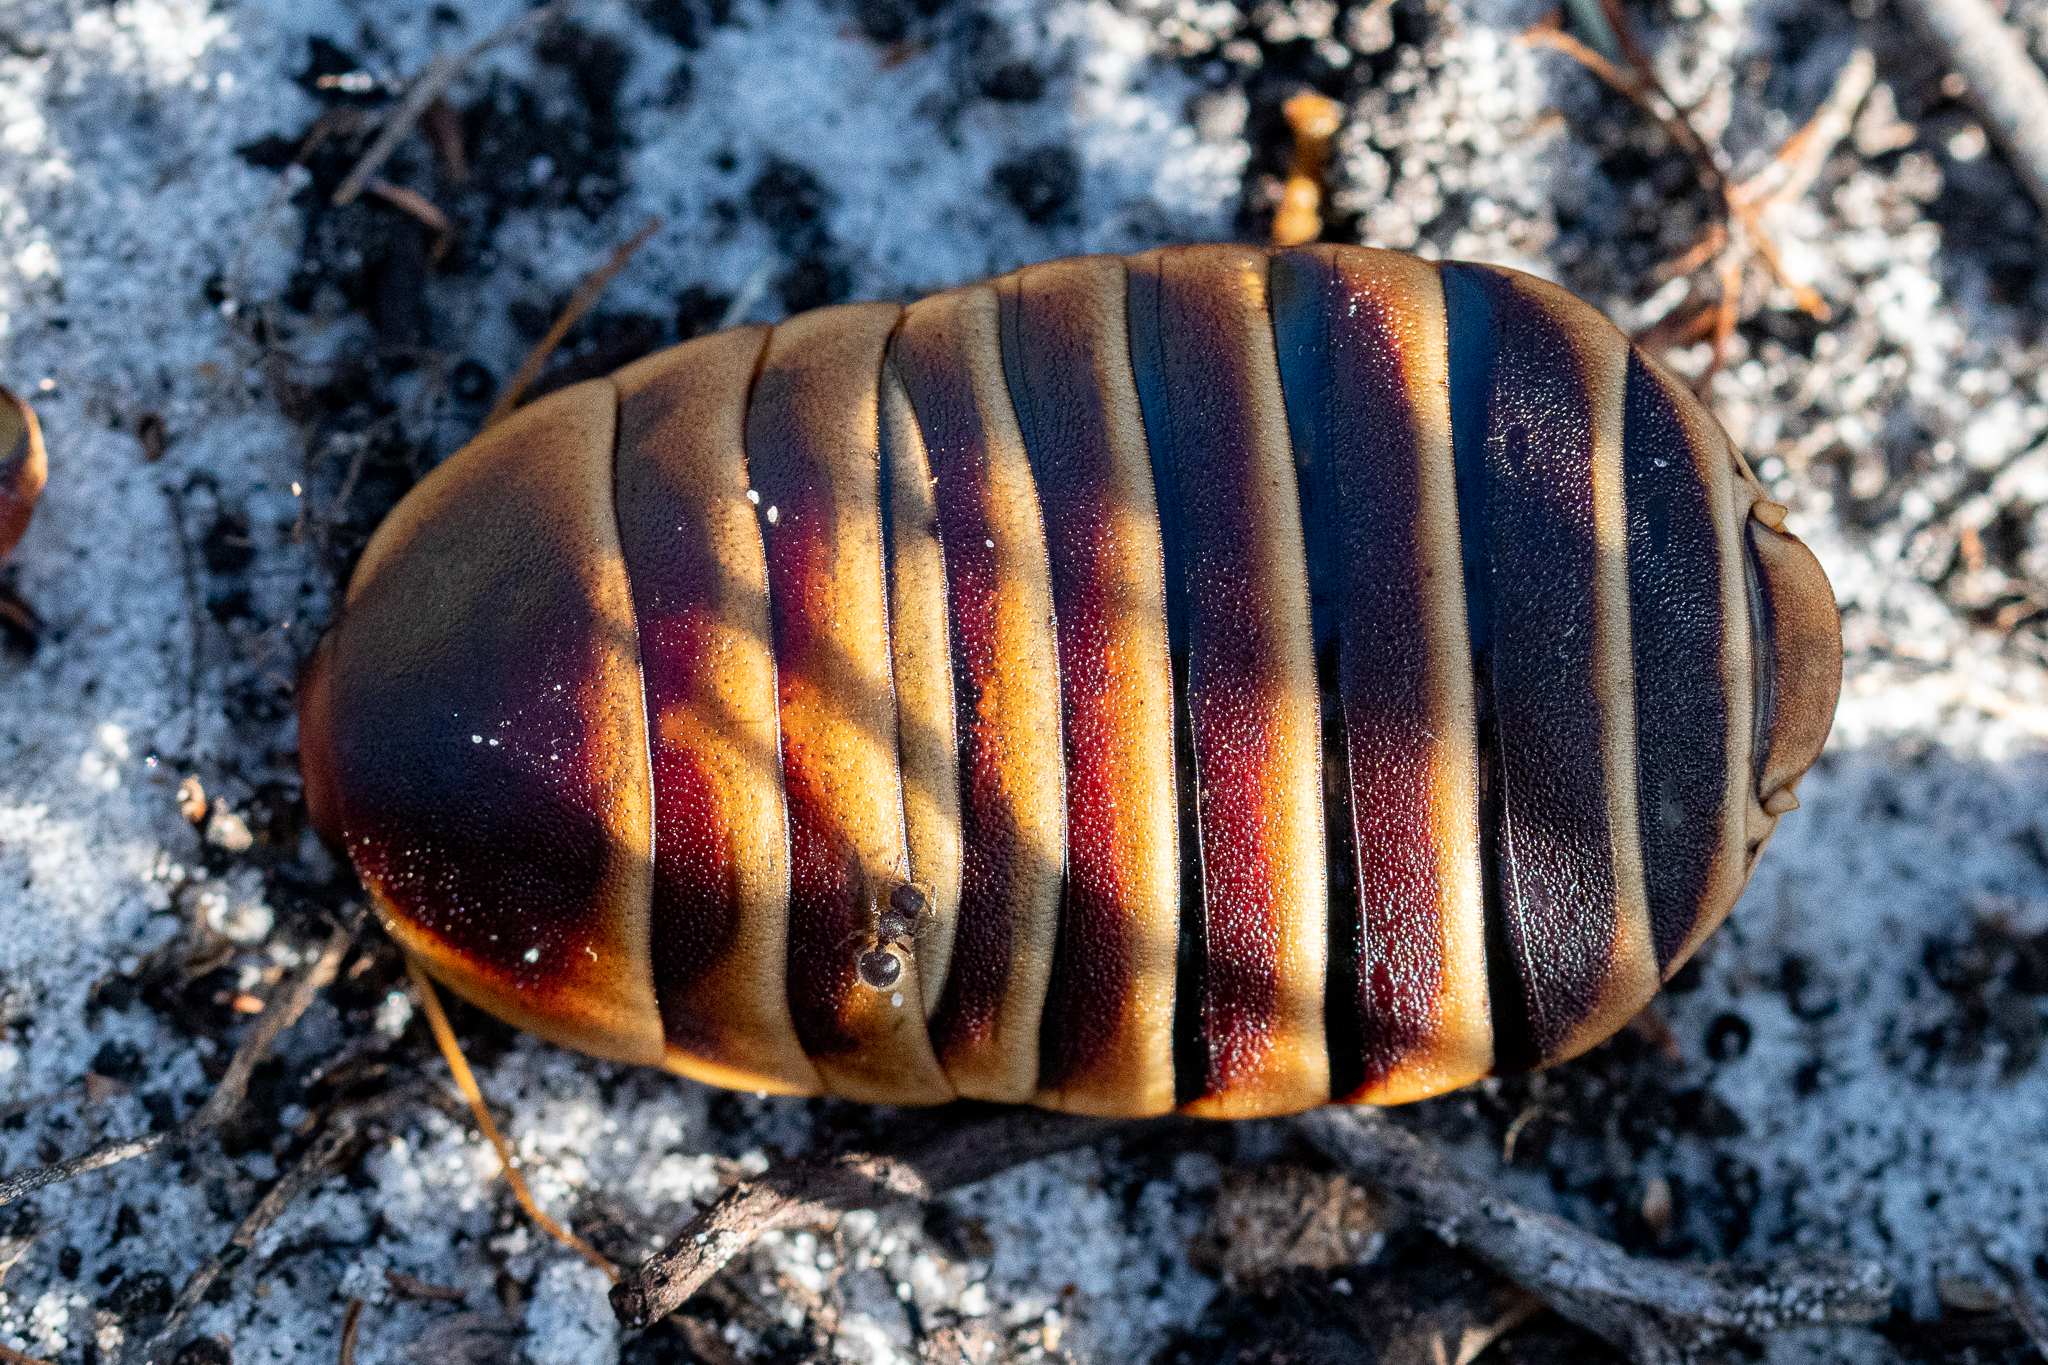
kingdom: Animalia
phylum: Arthropoda
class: Insecta
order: Blattodea
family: Blaberidae
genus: Aptera
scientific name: Aptera fusca
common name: Cape mountain cockroach
